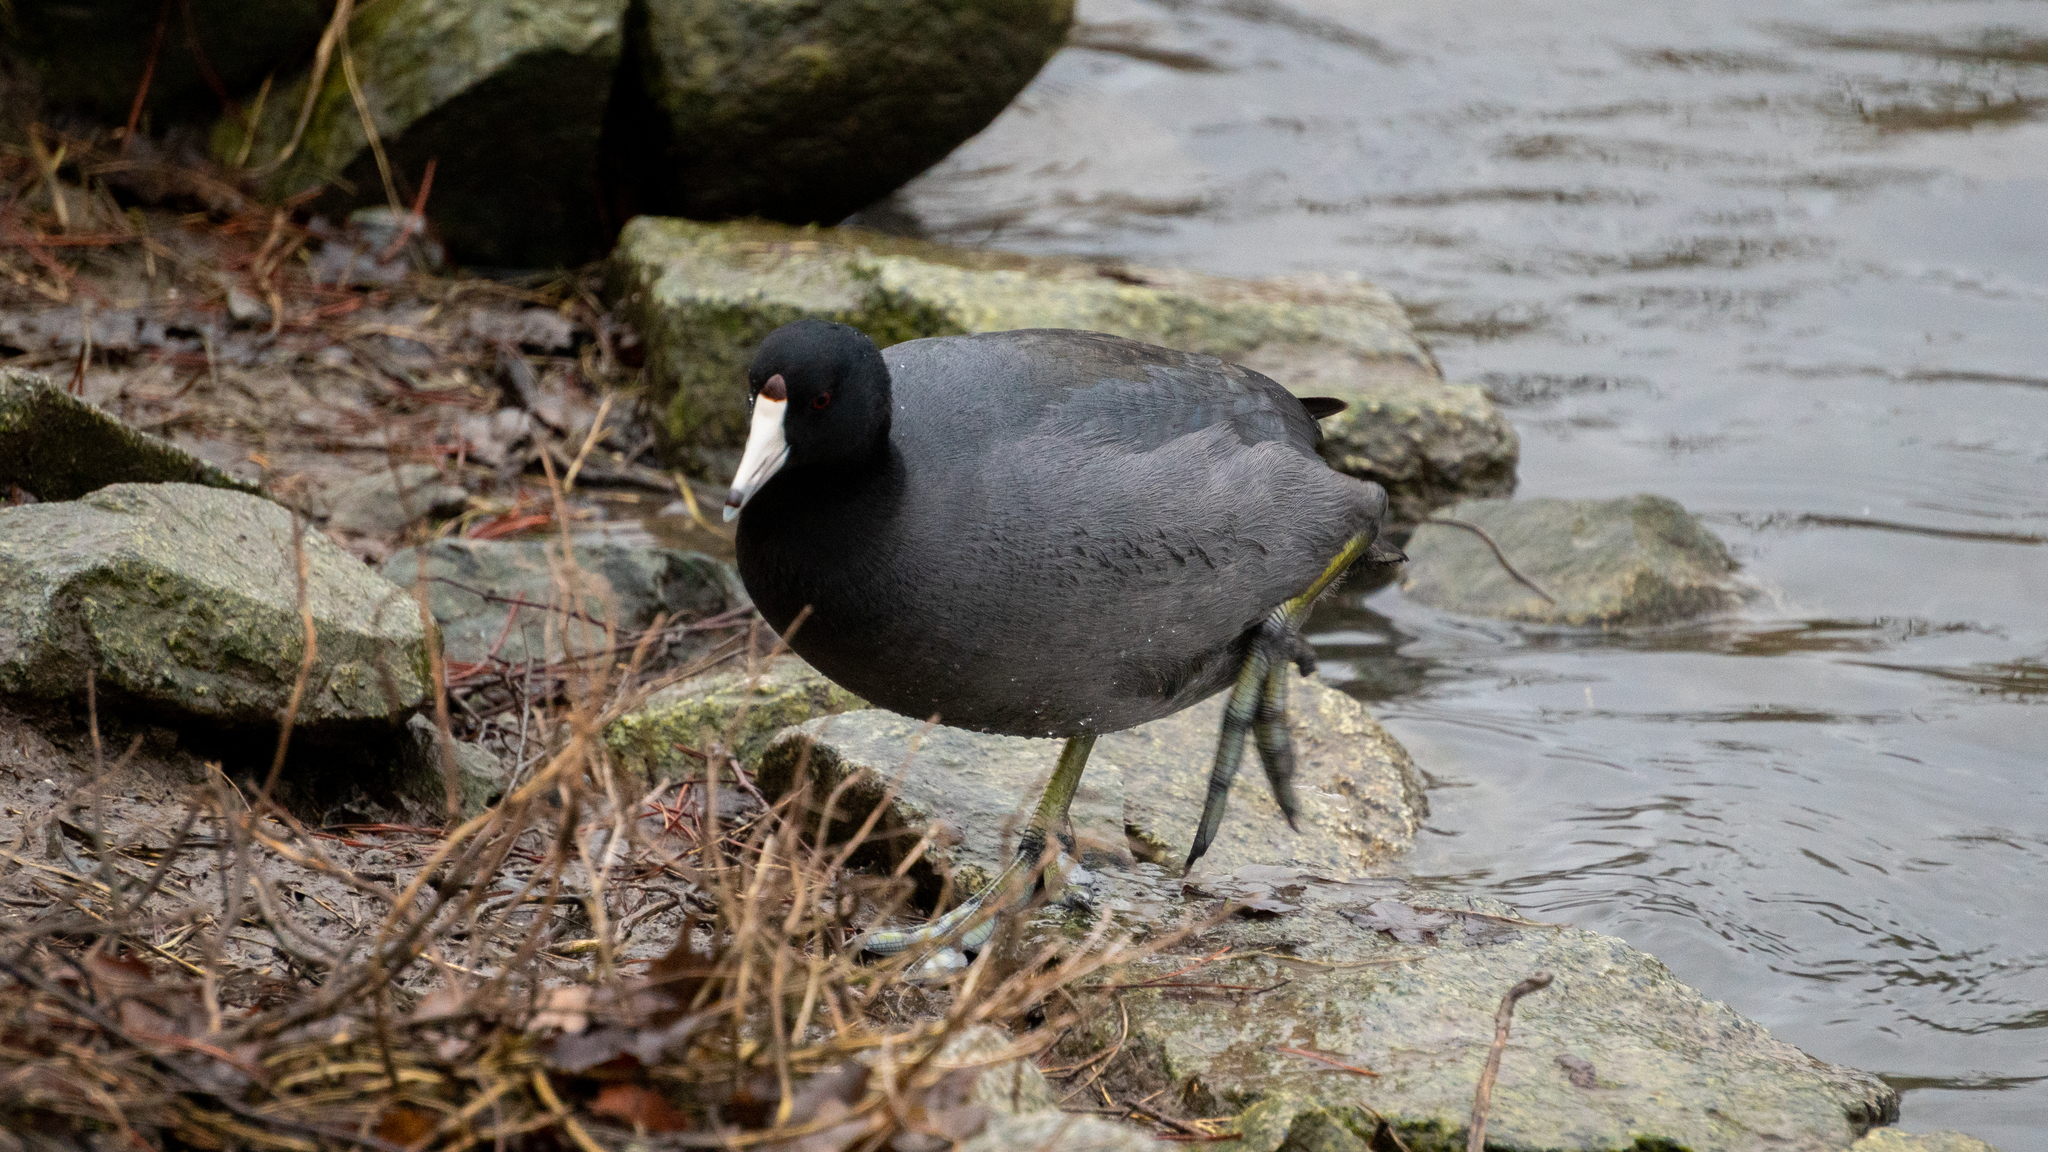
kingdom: Animalia
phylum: Chordata
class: Aves
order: Gruiformes
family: Rallidae
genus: Fulica
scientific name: Fulica americana
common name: American coot
